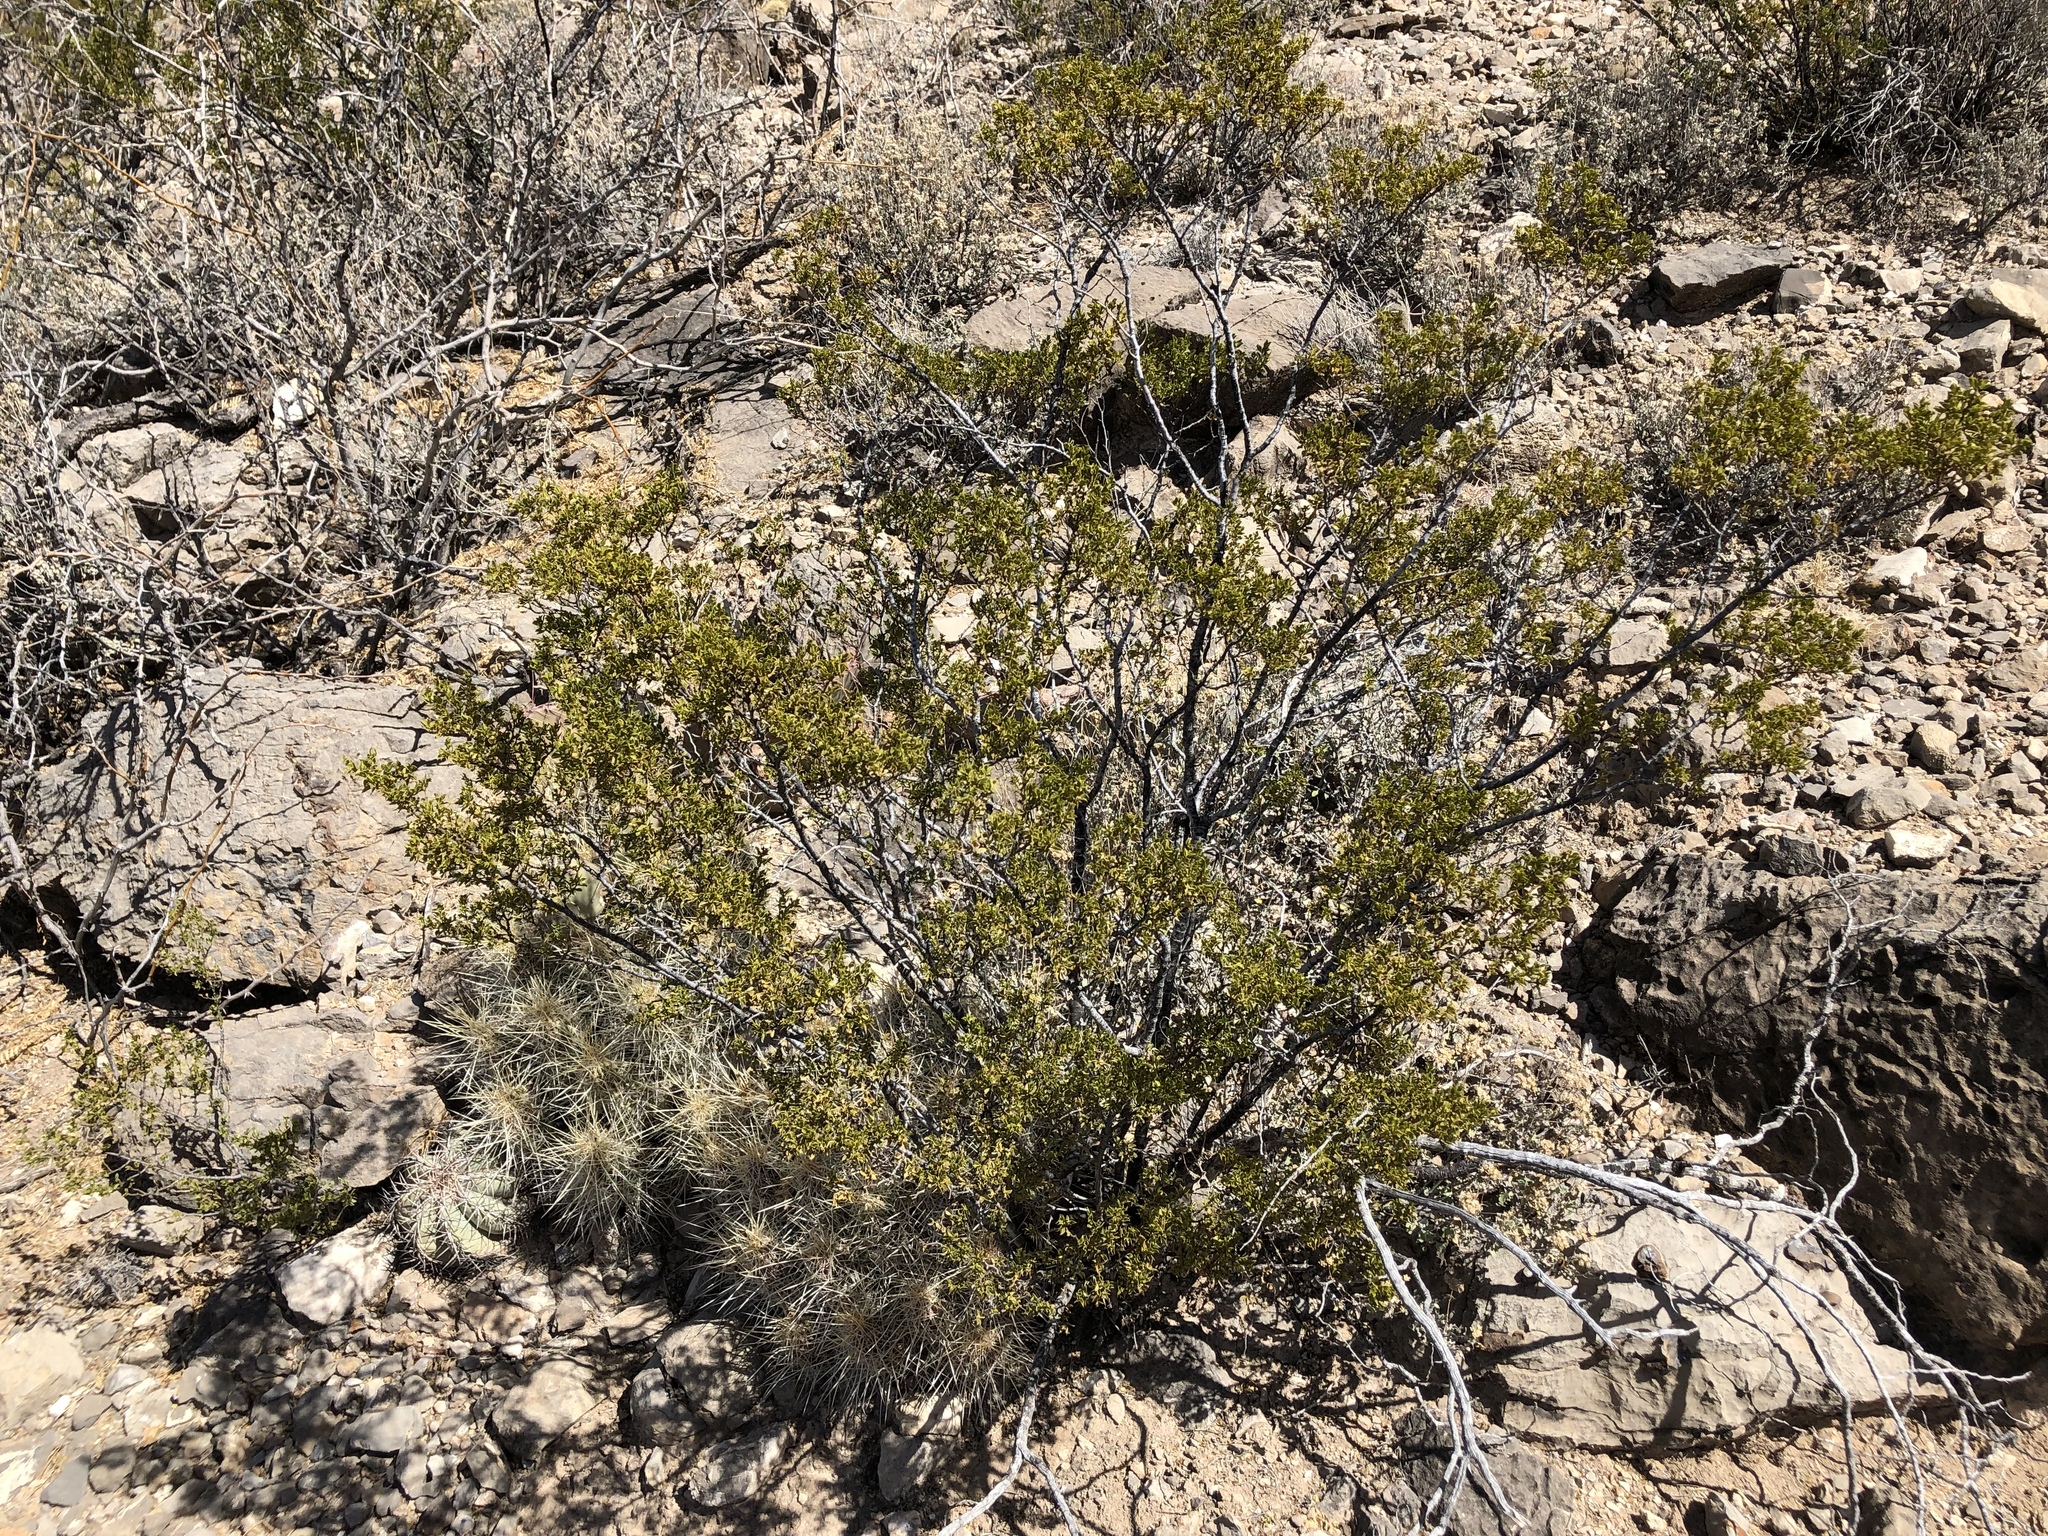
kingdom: Plantae
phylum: Tracheophyta
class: Magnoliopsida
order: Zygophyllales
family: Zygophyllaceae
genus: Larrea
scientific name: Larrea tridentata
